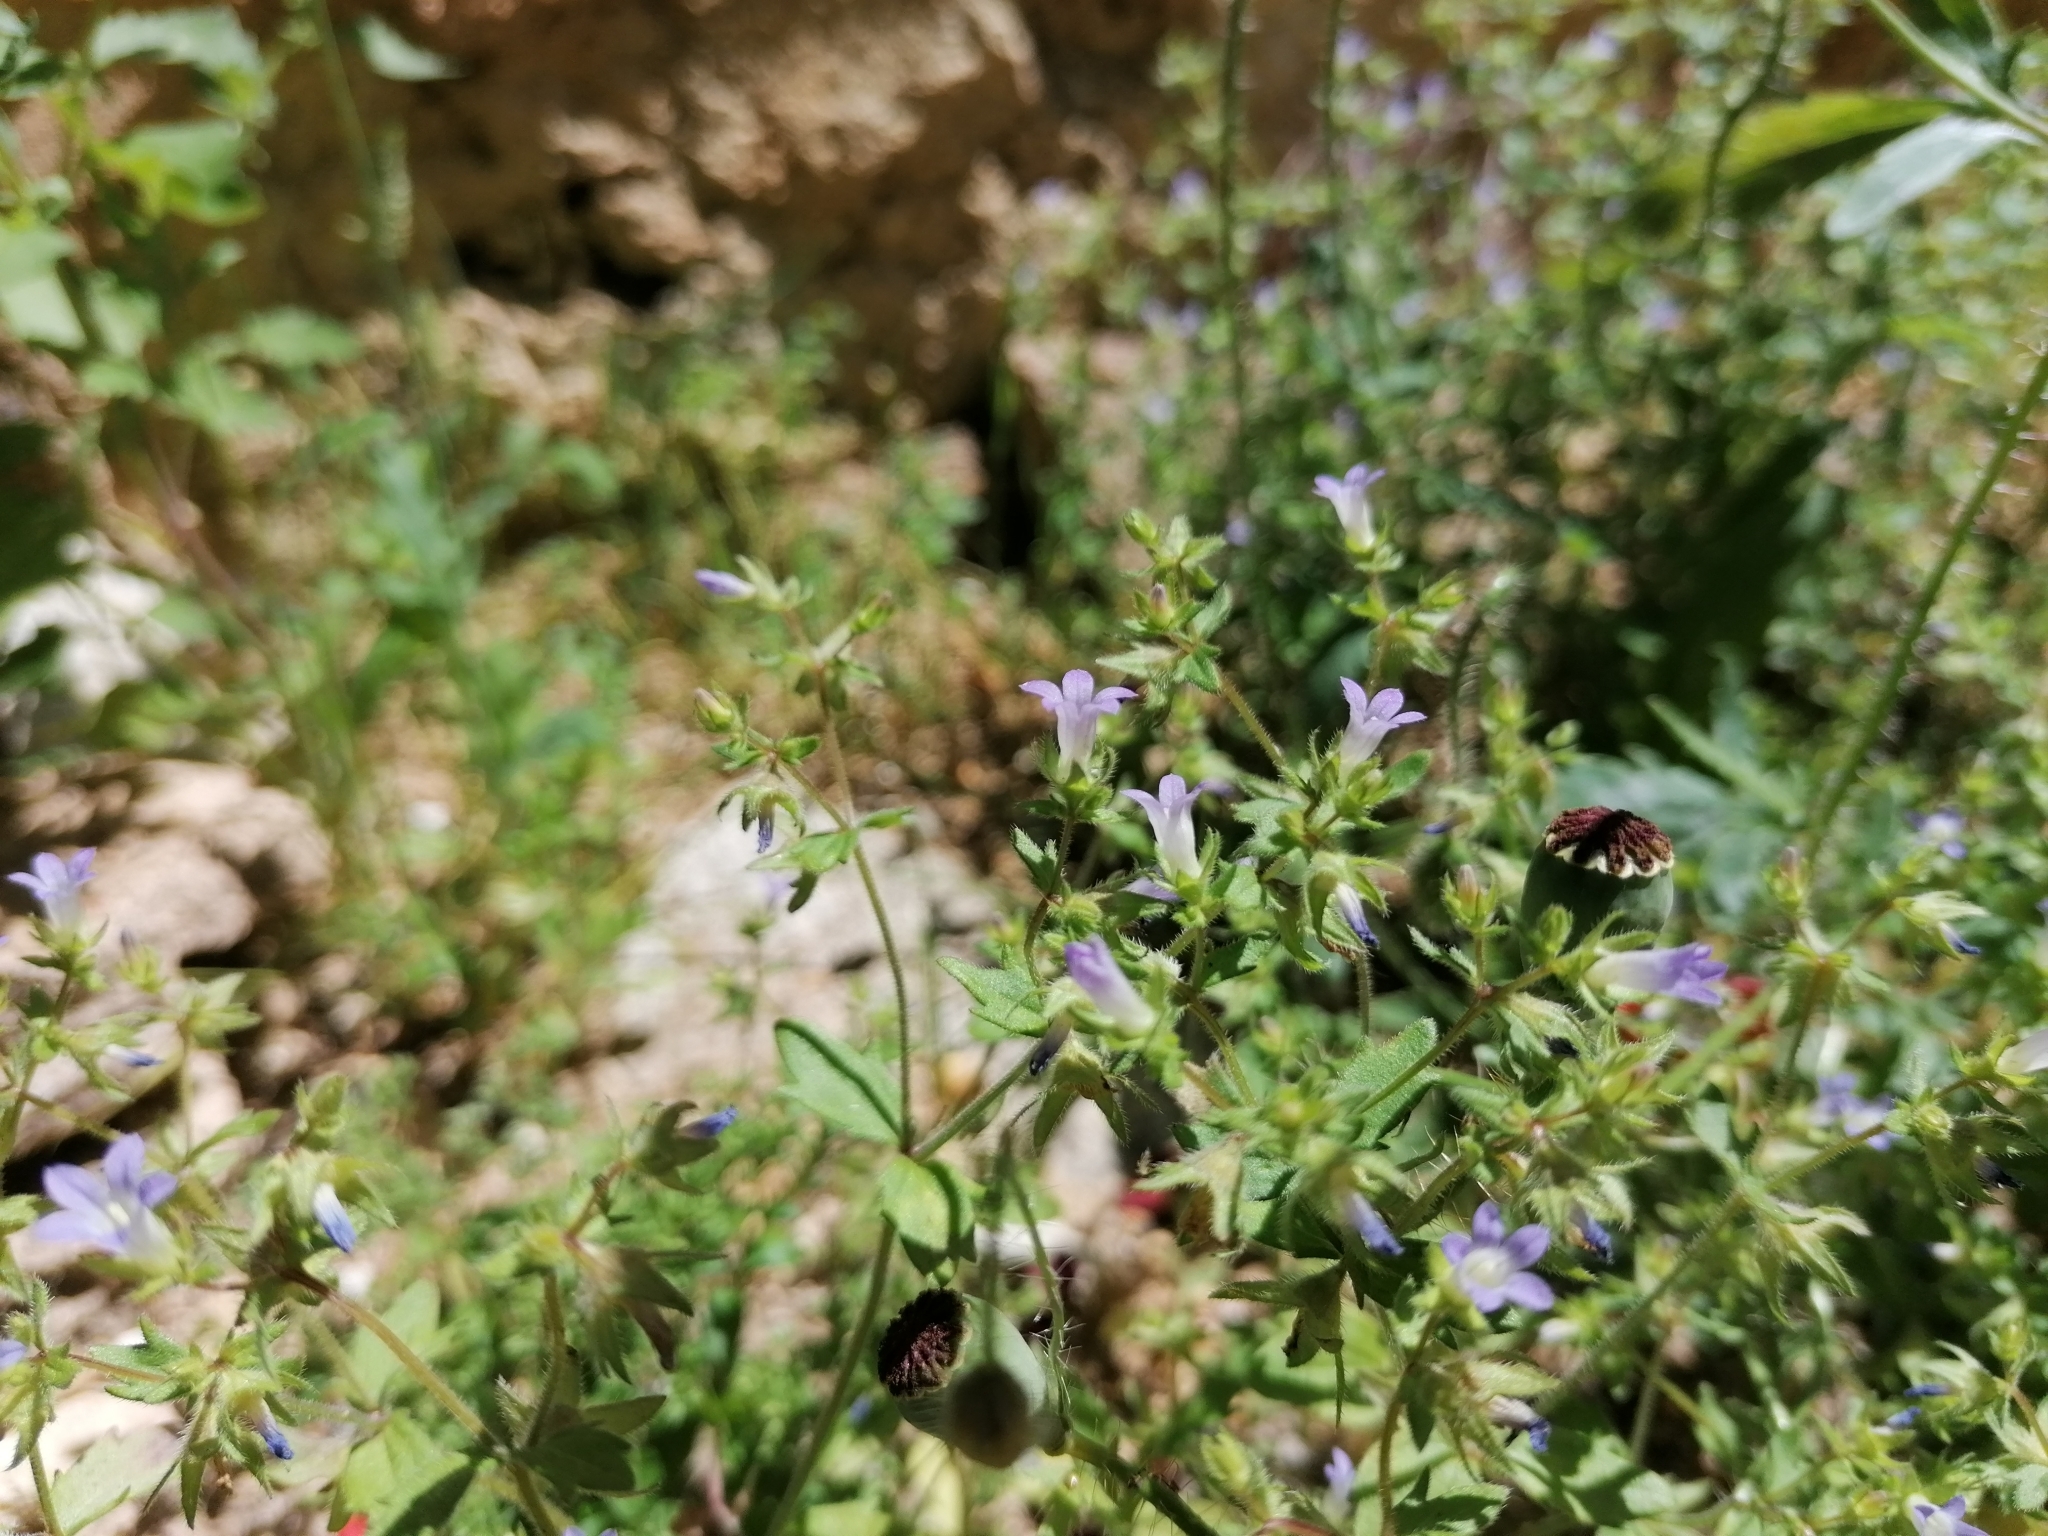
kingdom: Plantae
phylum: Tracheophyta
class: Magnoliopsida
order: Asterales
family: Campanulaceae
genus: Campanula
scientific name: Campanula erinus
